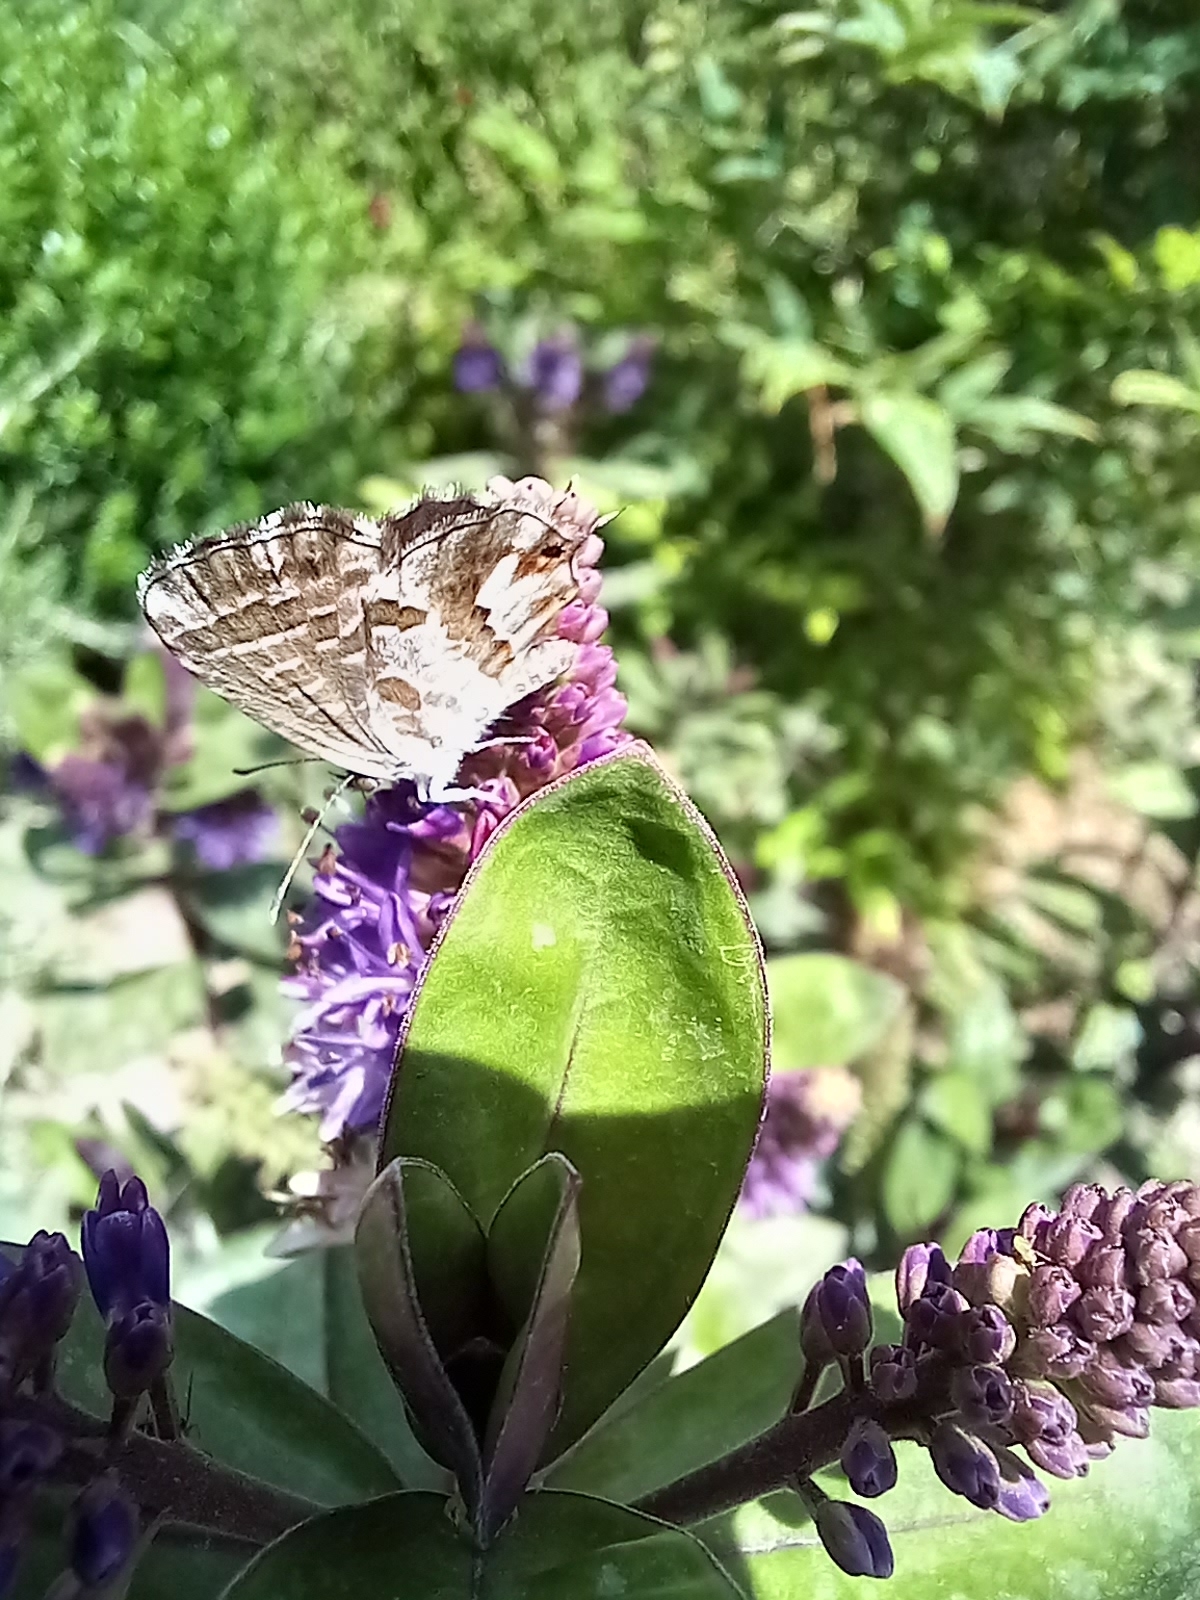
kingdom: Animalia
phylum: Arthropoda
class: Insecta
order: Lepidoptera
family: Lycaenidae
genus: Cacyreus
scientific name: Cacyreus marshalli
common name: Geranium bronze
